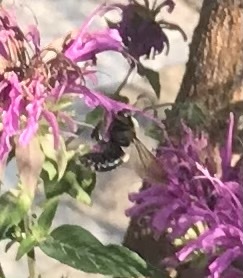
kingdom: Animalia
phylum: Arthropoda
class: Insecta
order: Hymenoptera
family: Apidae
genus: Xylocopa
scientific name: Xylocopa virginica
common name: Carpenter bee
